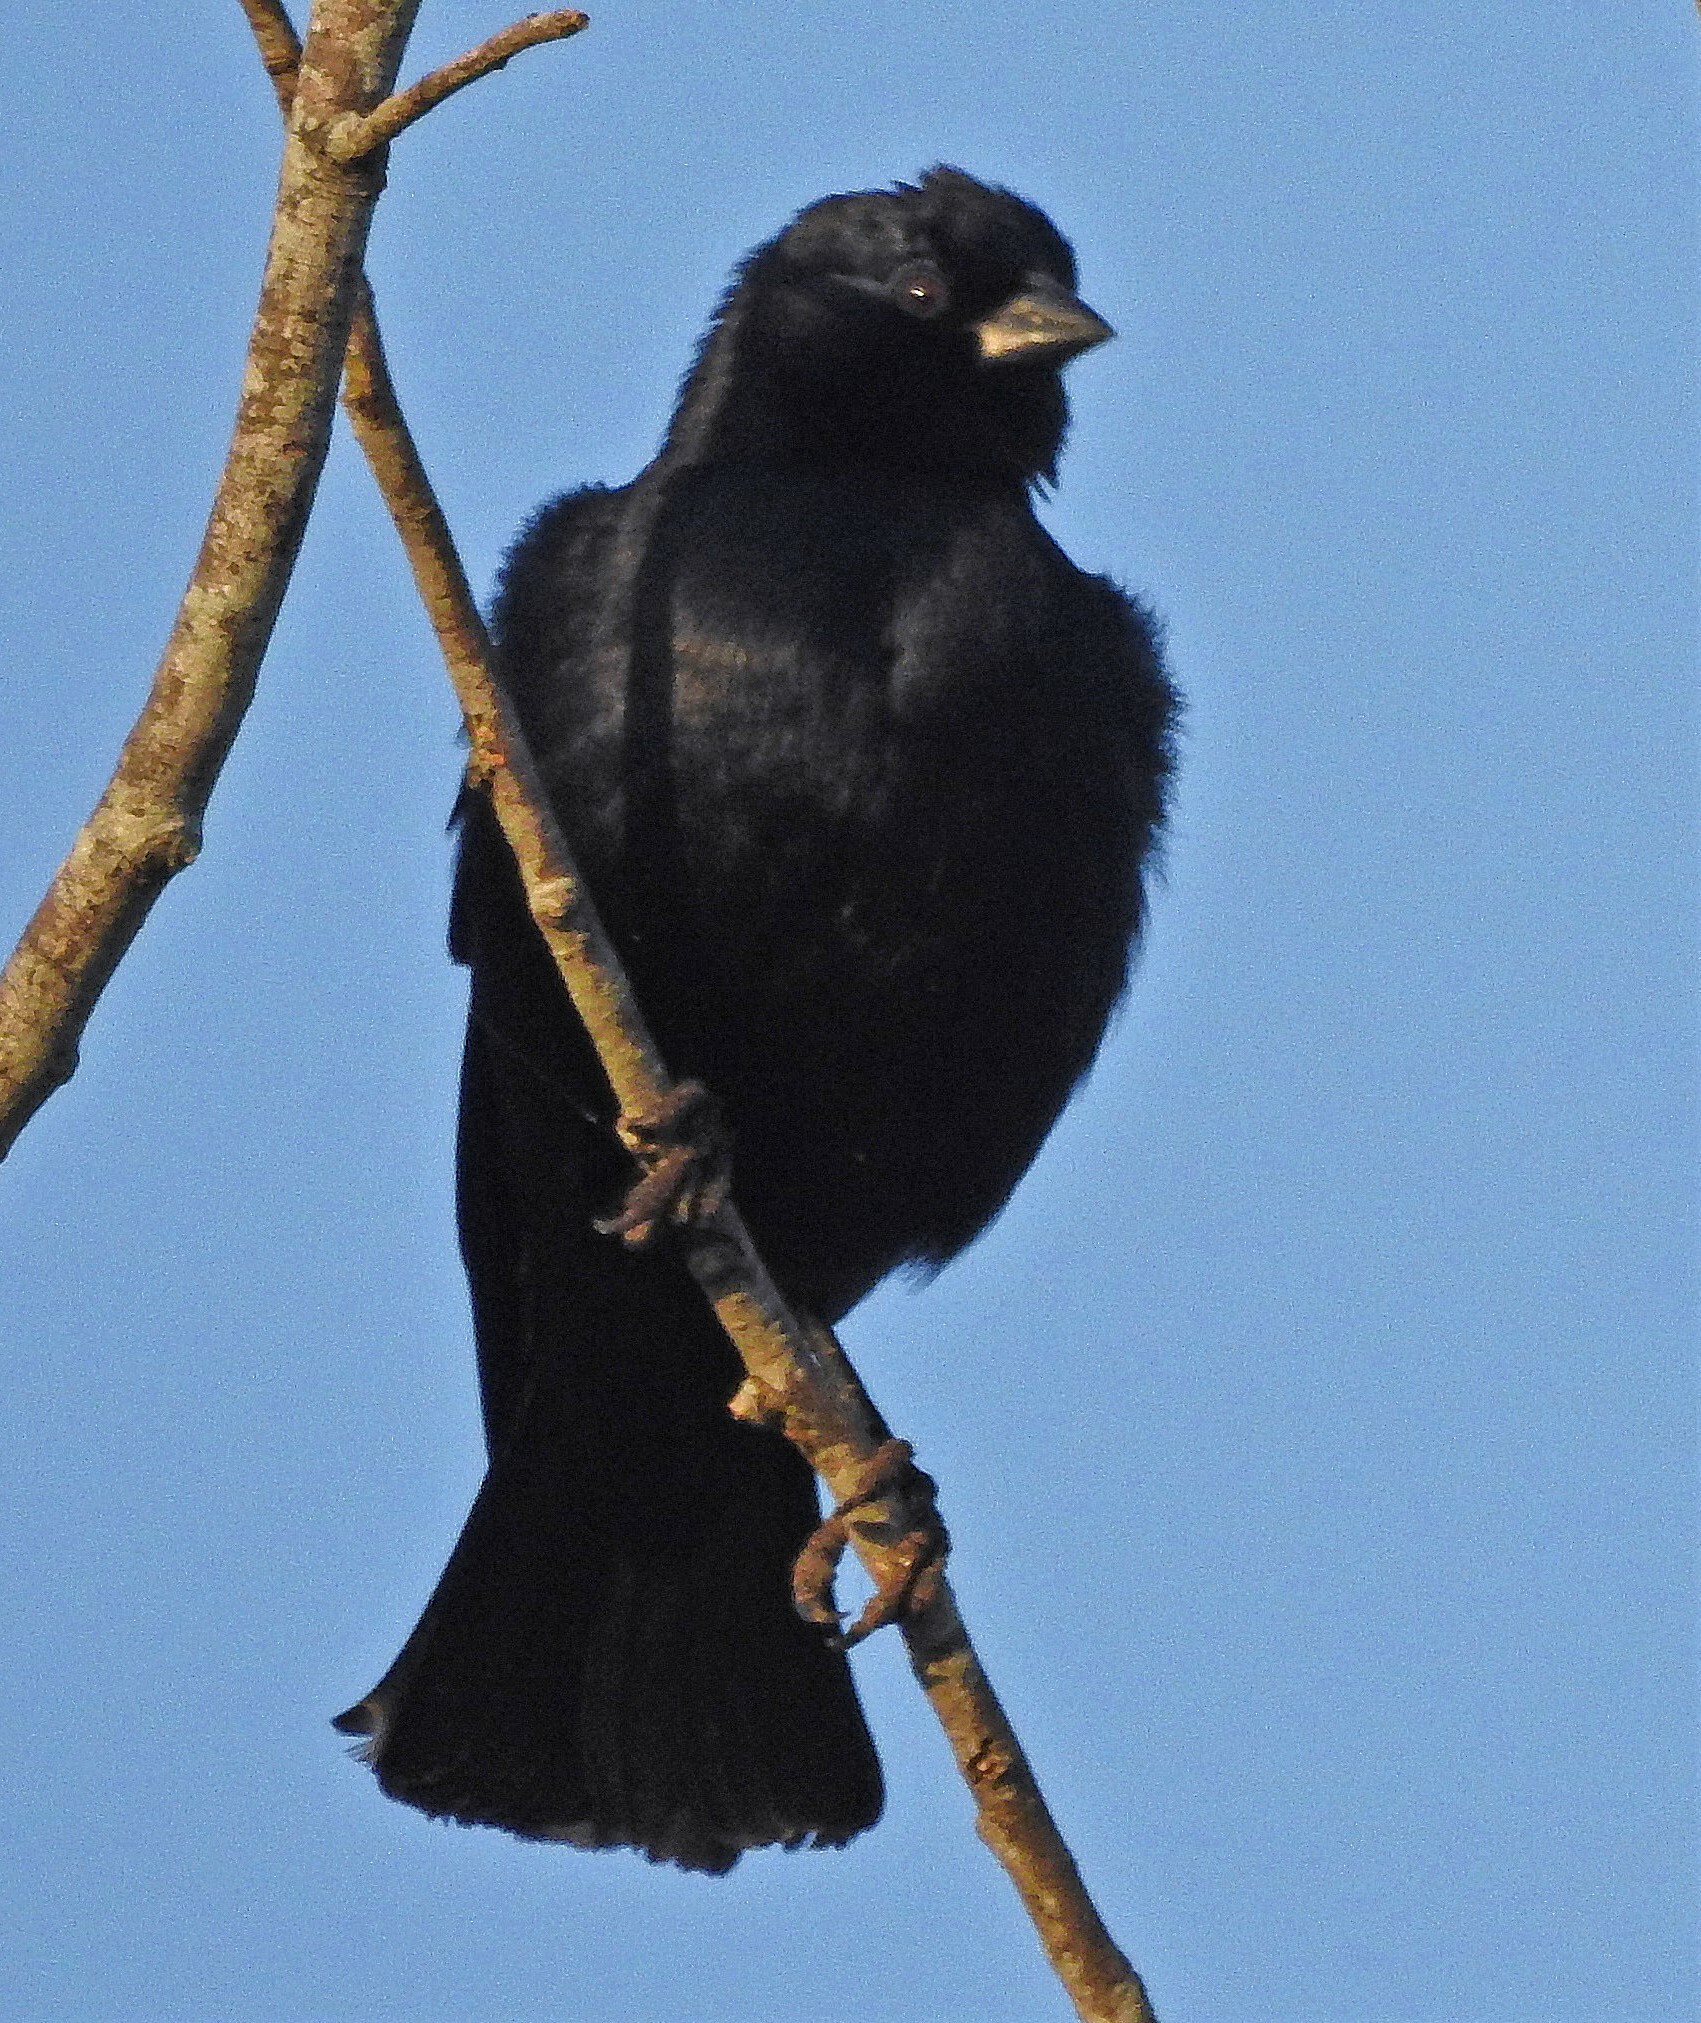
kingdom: Animalia
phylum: Chordata
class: Aves
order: Passeriformes
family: Icteridae
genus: Molothrus
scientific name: Molothrus rufoaxillaris
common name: Screaming cowbird
